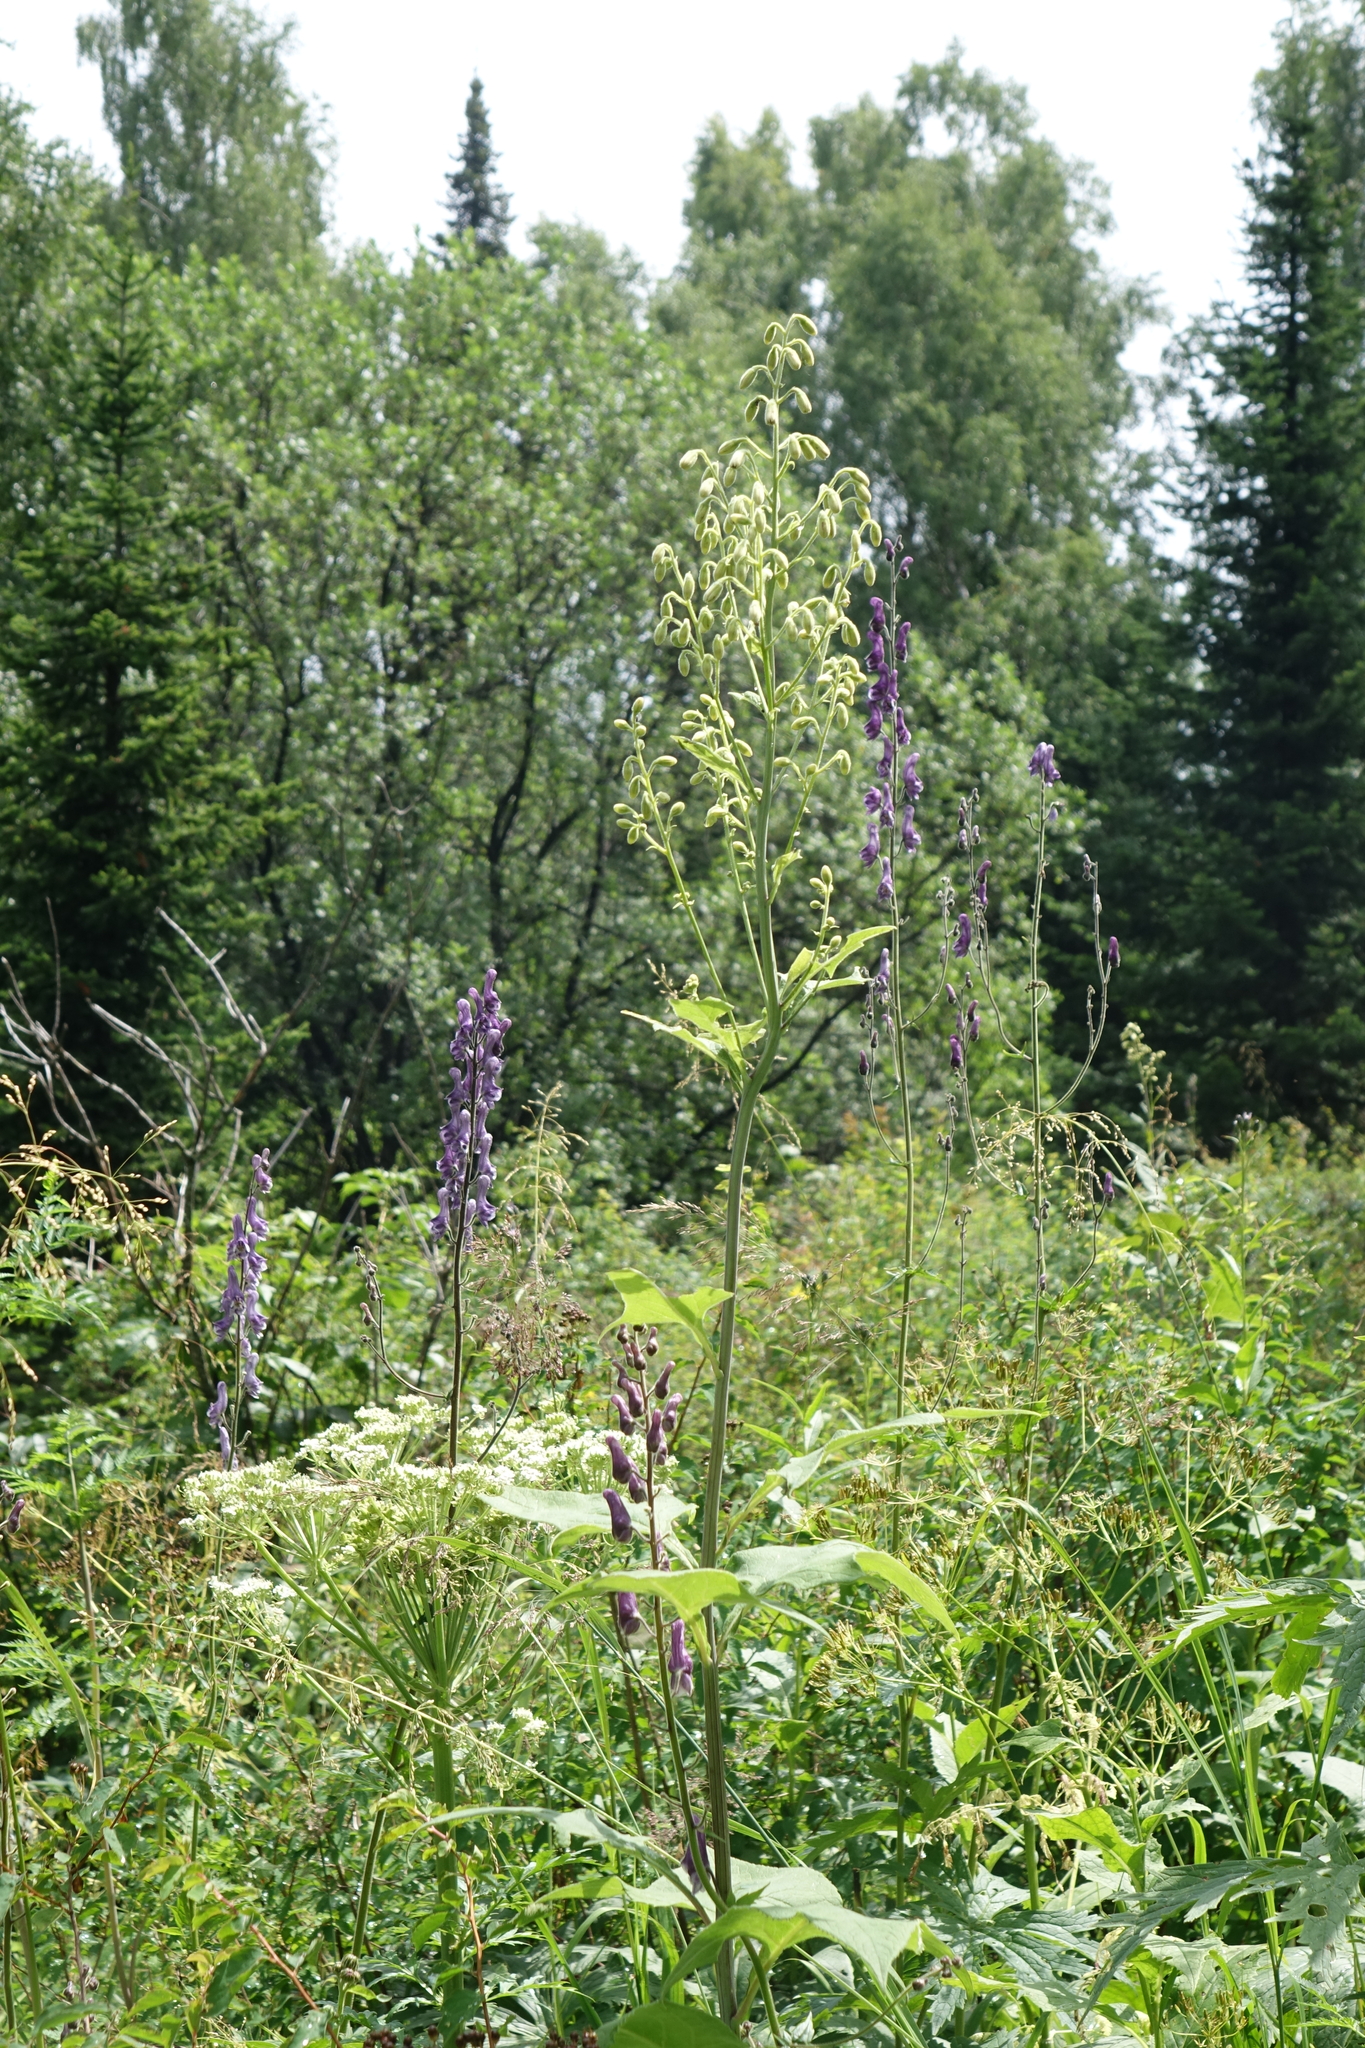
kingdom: Plantae
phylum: Tracheophyta
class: Magnoliopsida
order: Asterales
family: Asteraceae
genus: Parasenecio
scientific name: Parasenecio hastatus
